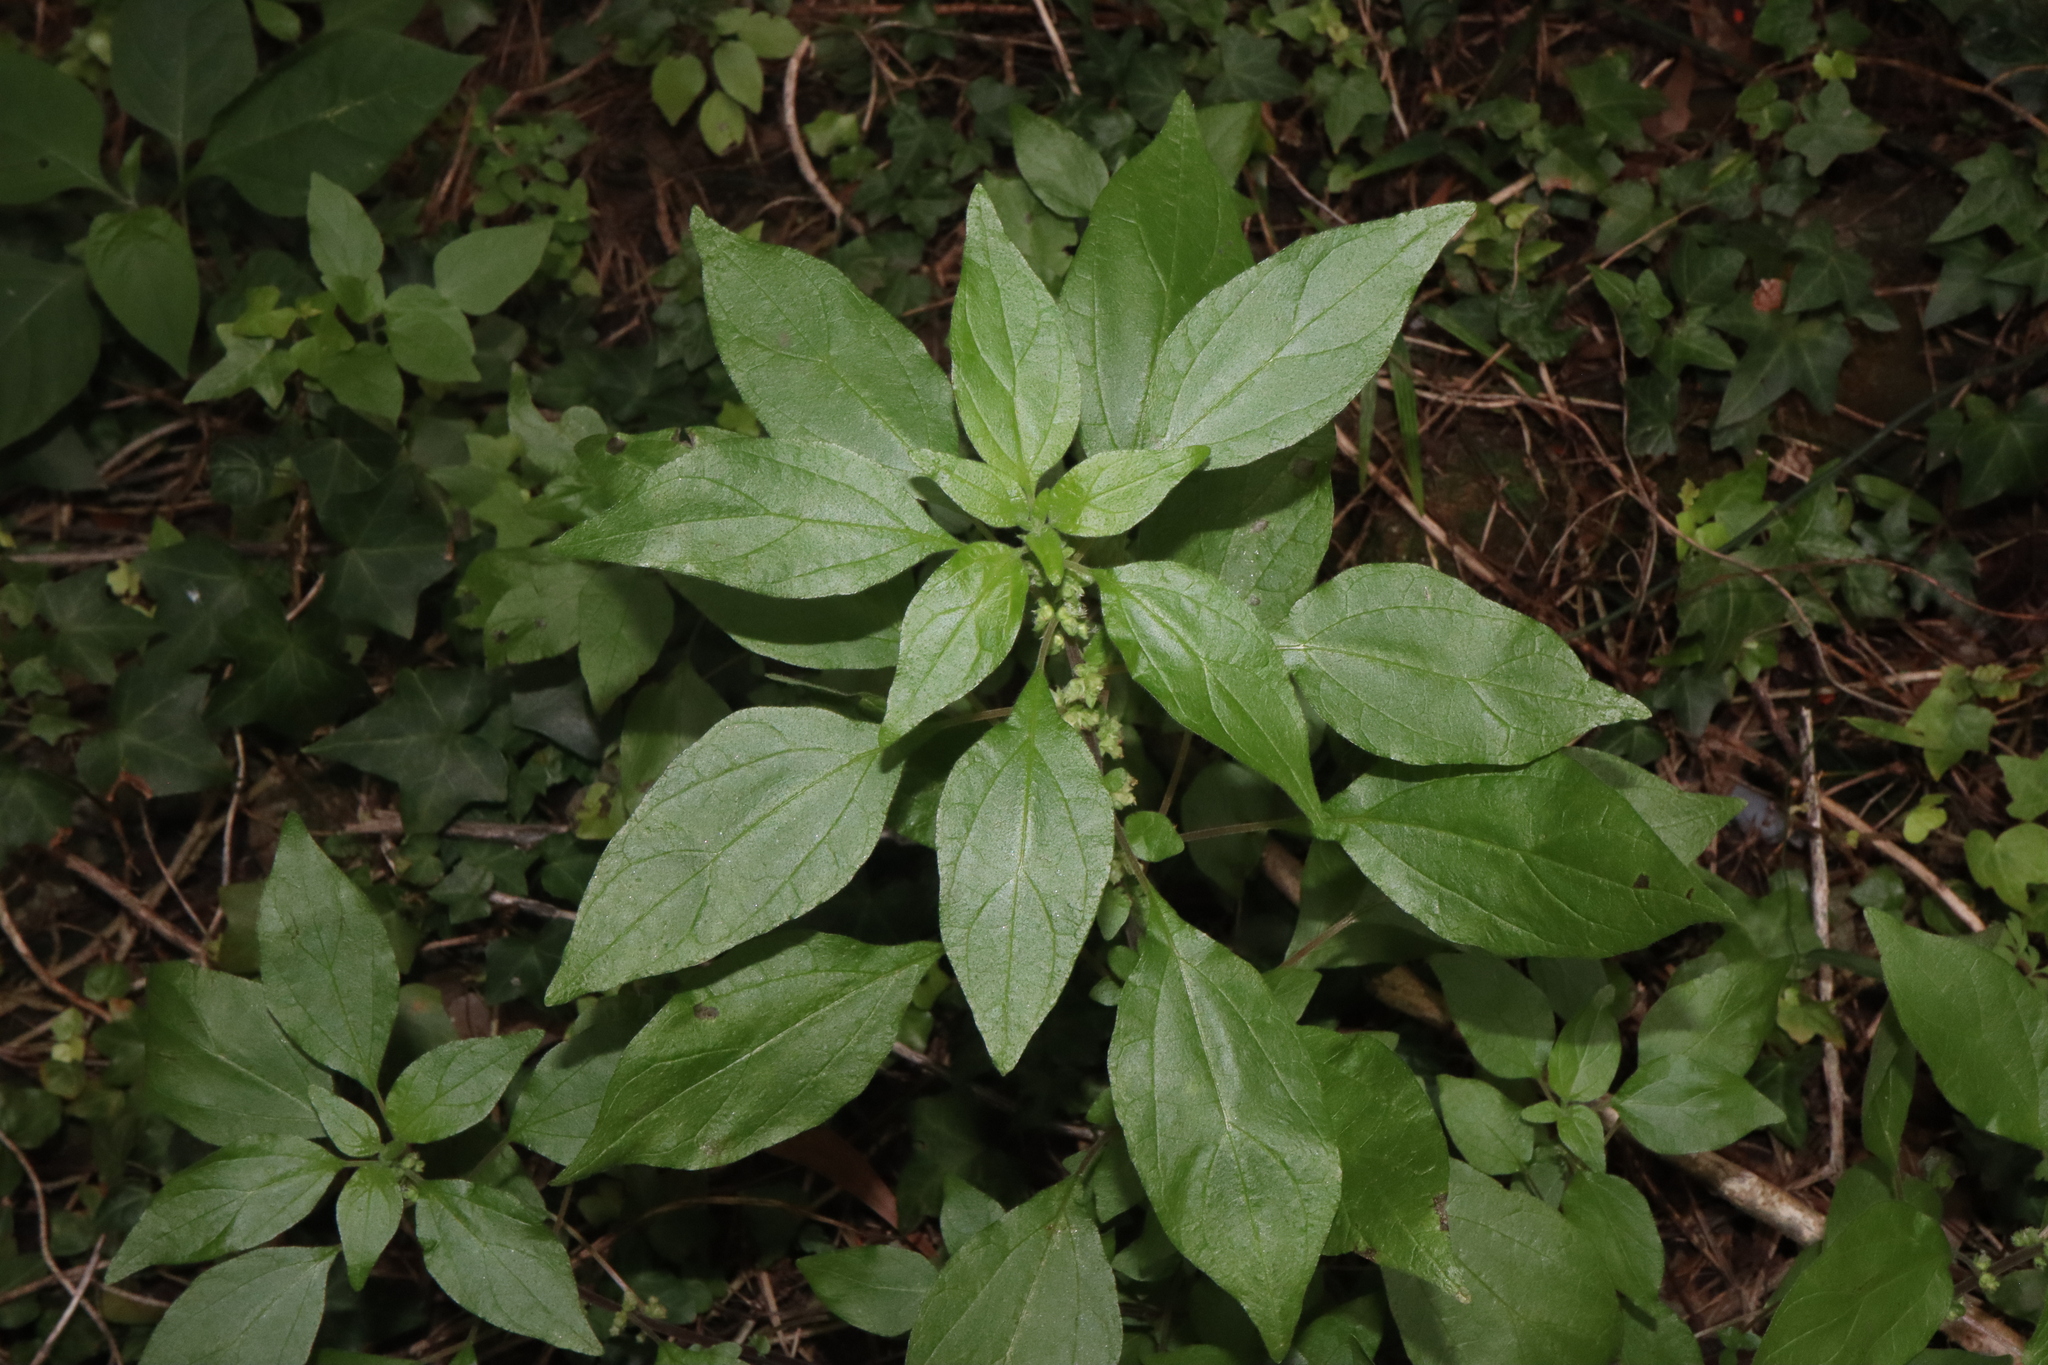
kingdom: Plantae
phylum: Tracheophyta
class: Magnoliopsida
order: Rosales
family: Urticaceae
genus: Parietaria
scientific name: Parietaria judaica
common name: Pellitory-of-the-wall
